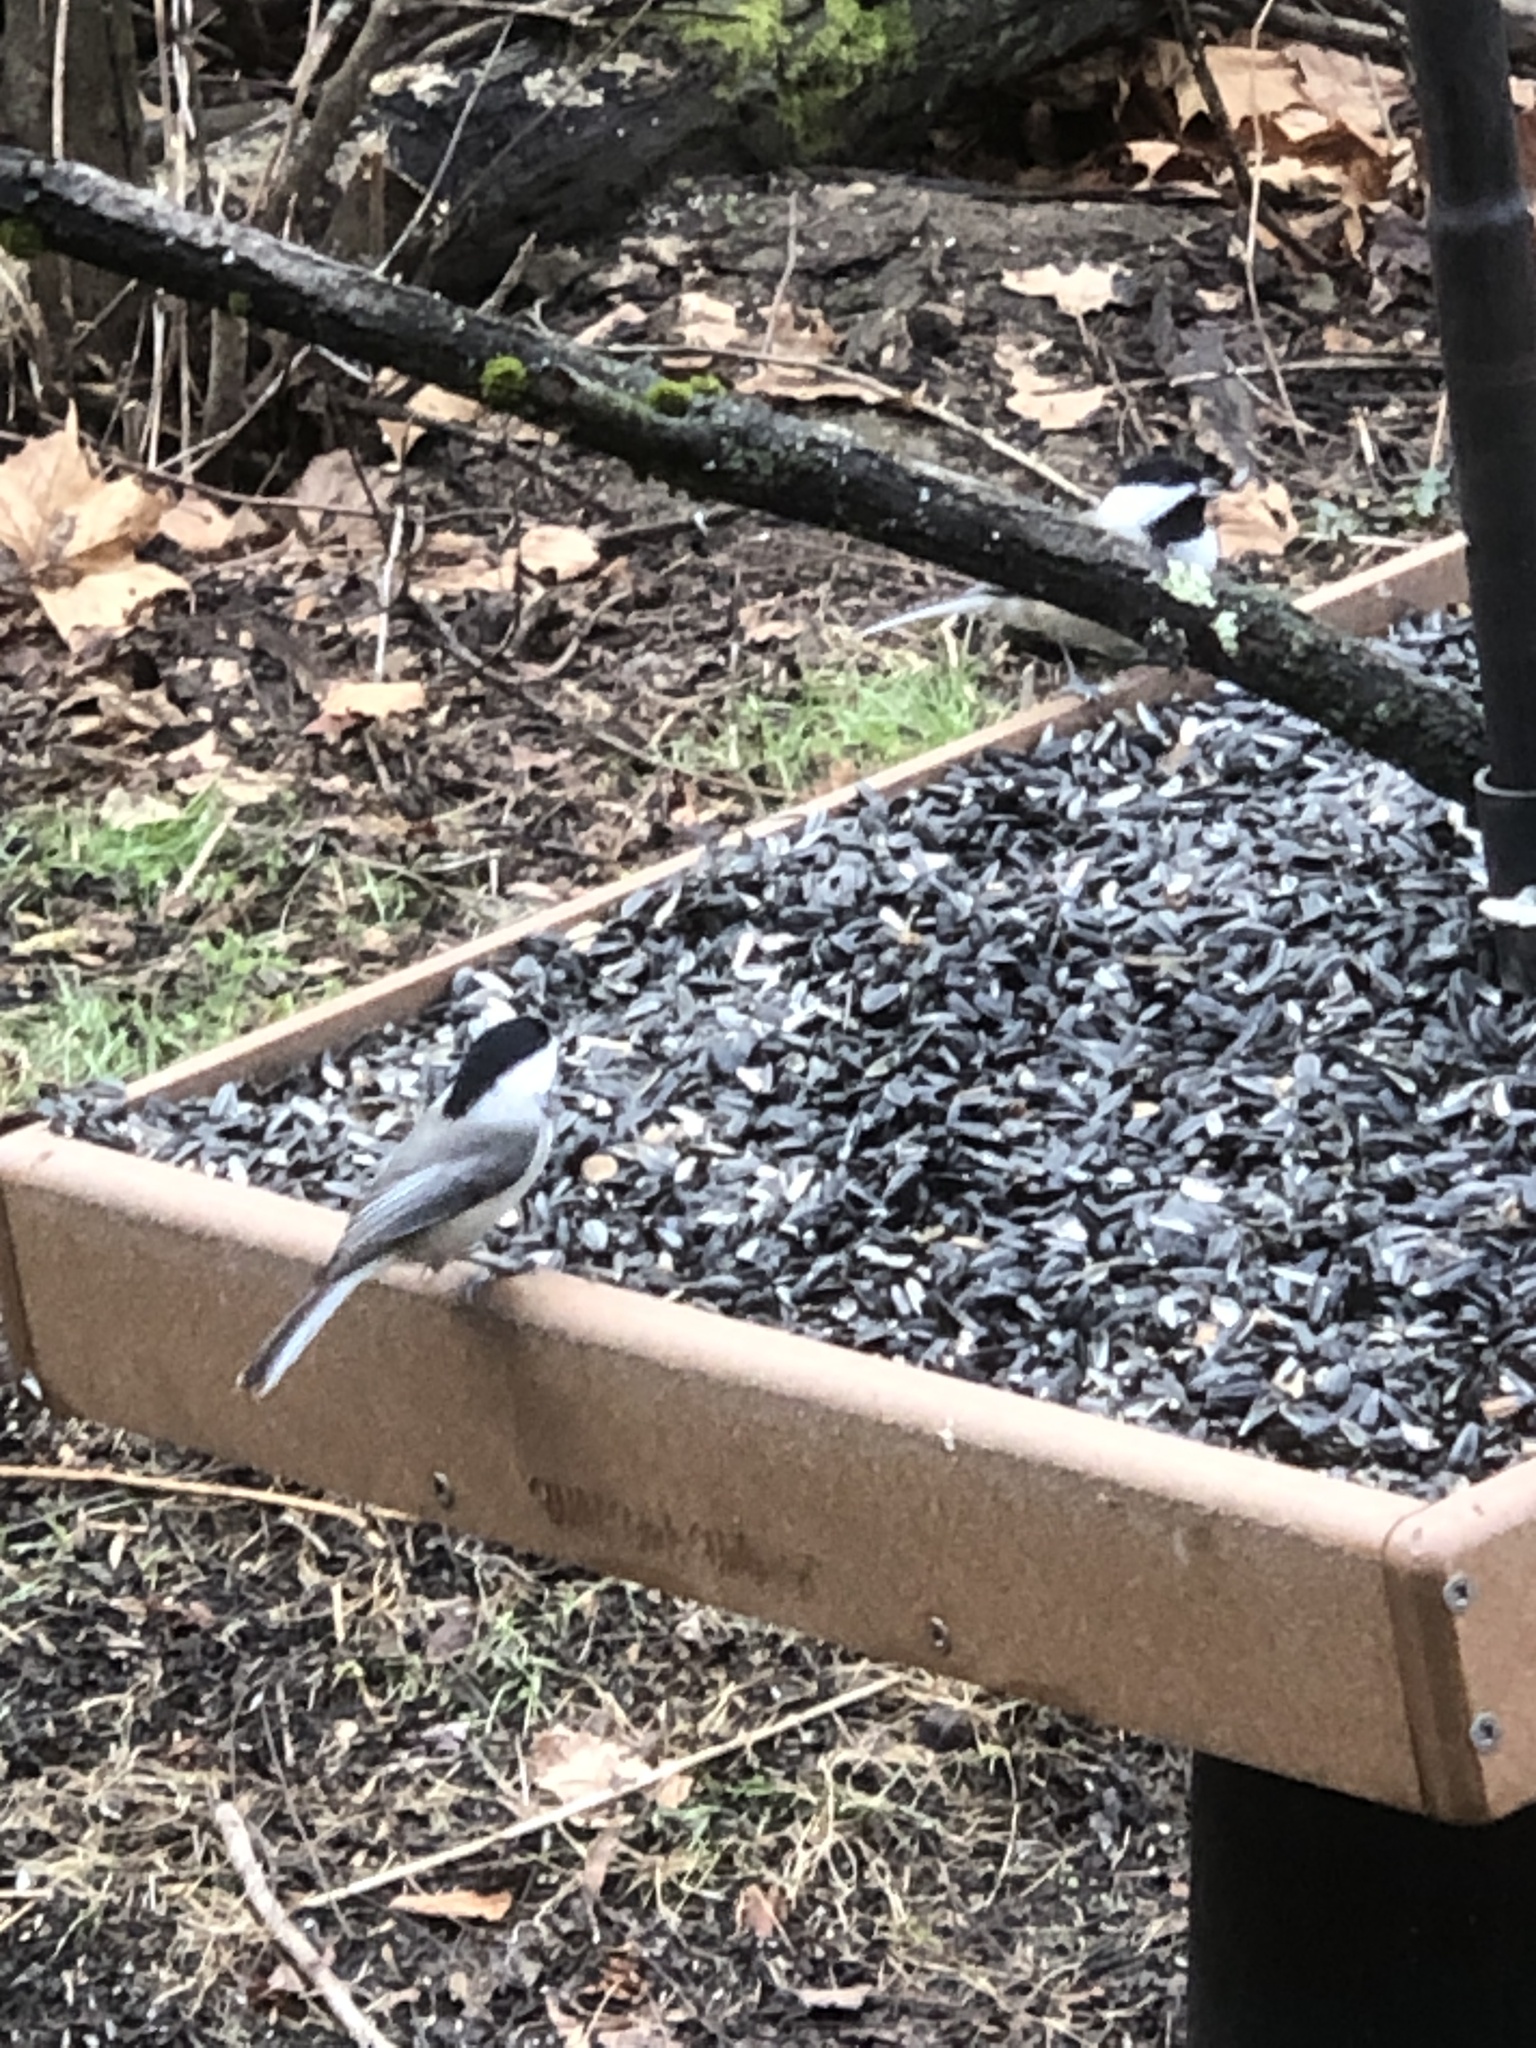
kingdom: Animalia
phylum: Chordata
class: Aves
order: Passeriformes
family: Paridae
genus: Poecile
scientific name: Poecile carolinensis
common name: Carolina chickadee
